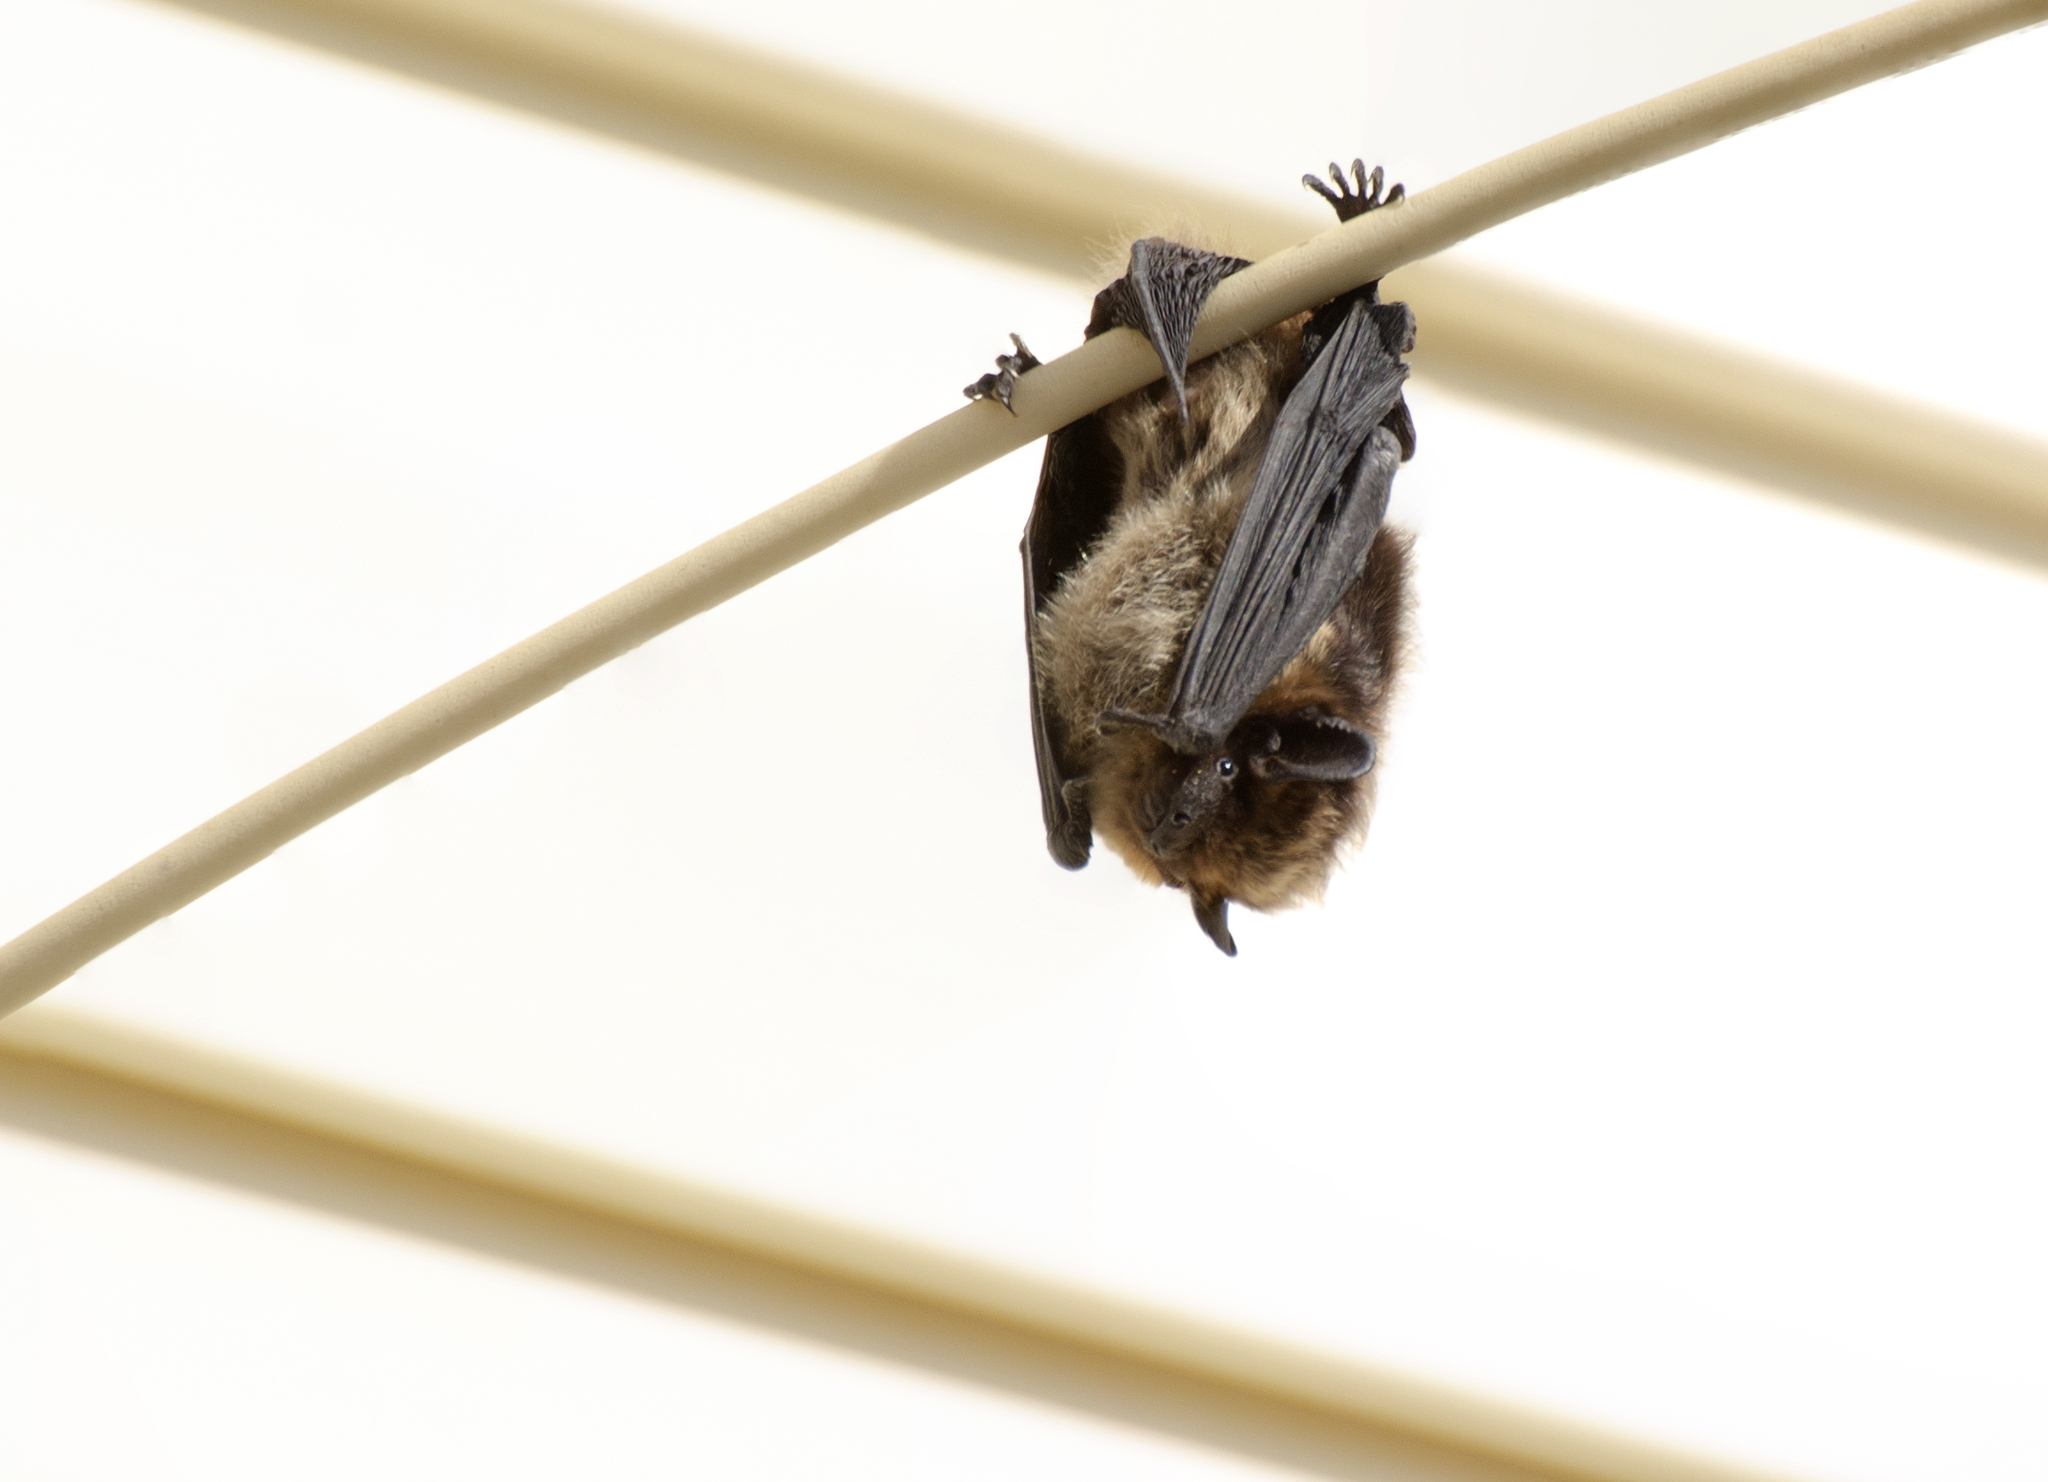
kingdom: Animalia
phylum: Chordata
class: Mammalia
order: Chiroptera
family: Vespertilionidae
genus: Eptesicus
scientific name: Eptesicus nilssonii
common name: Northern bat
